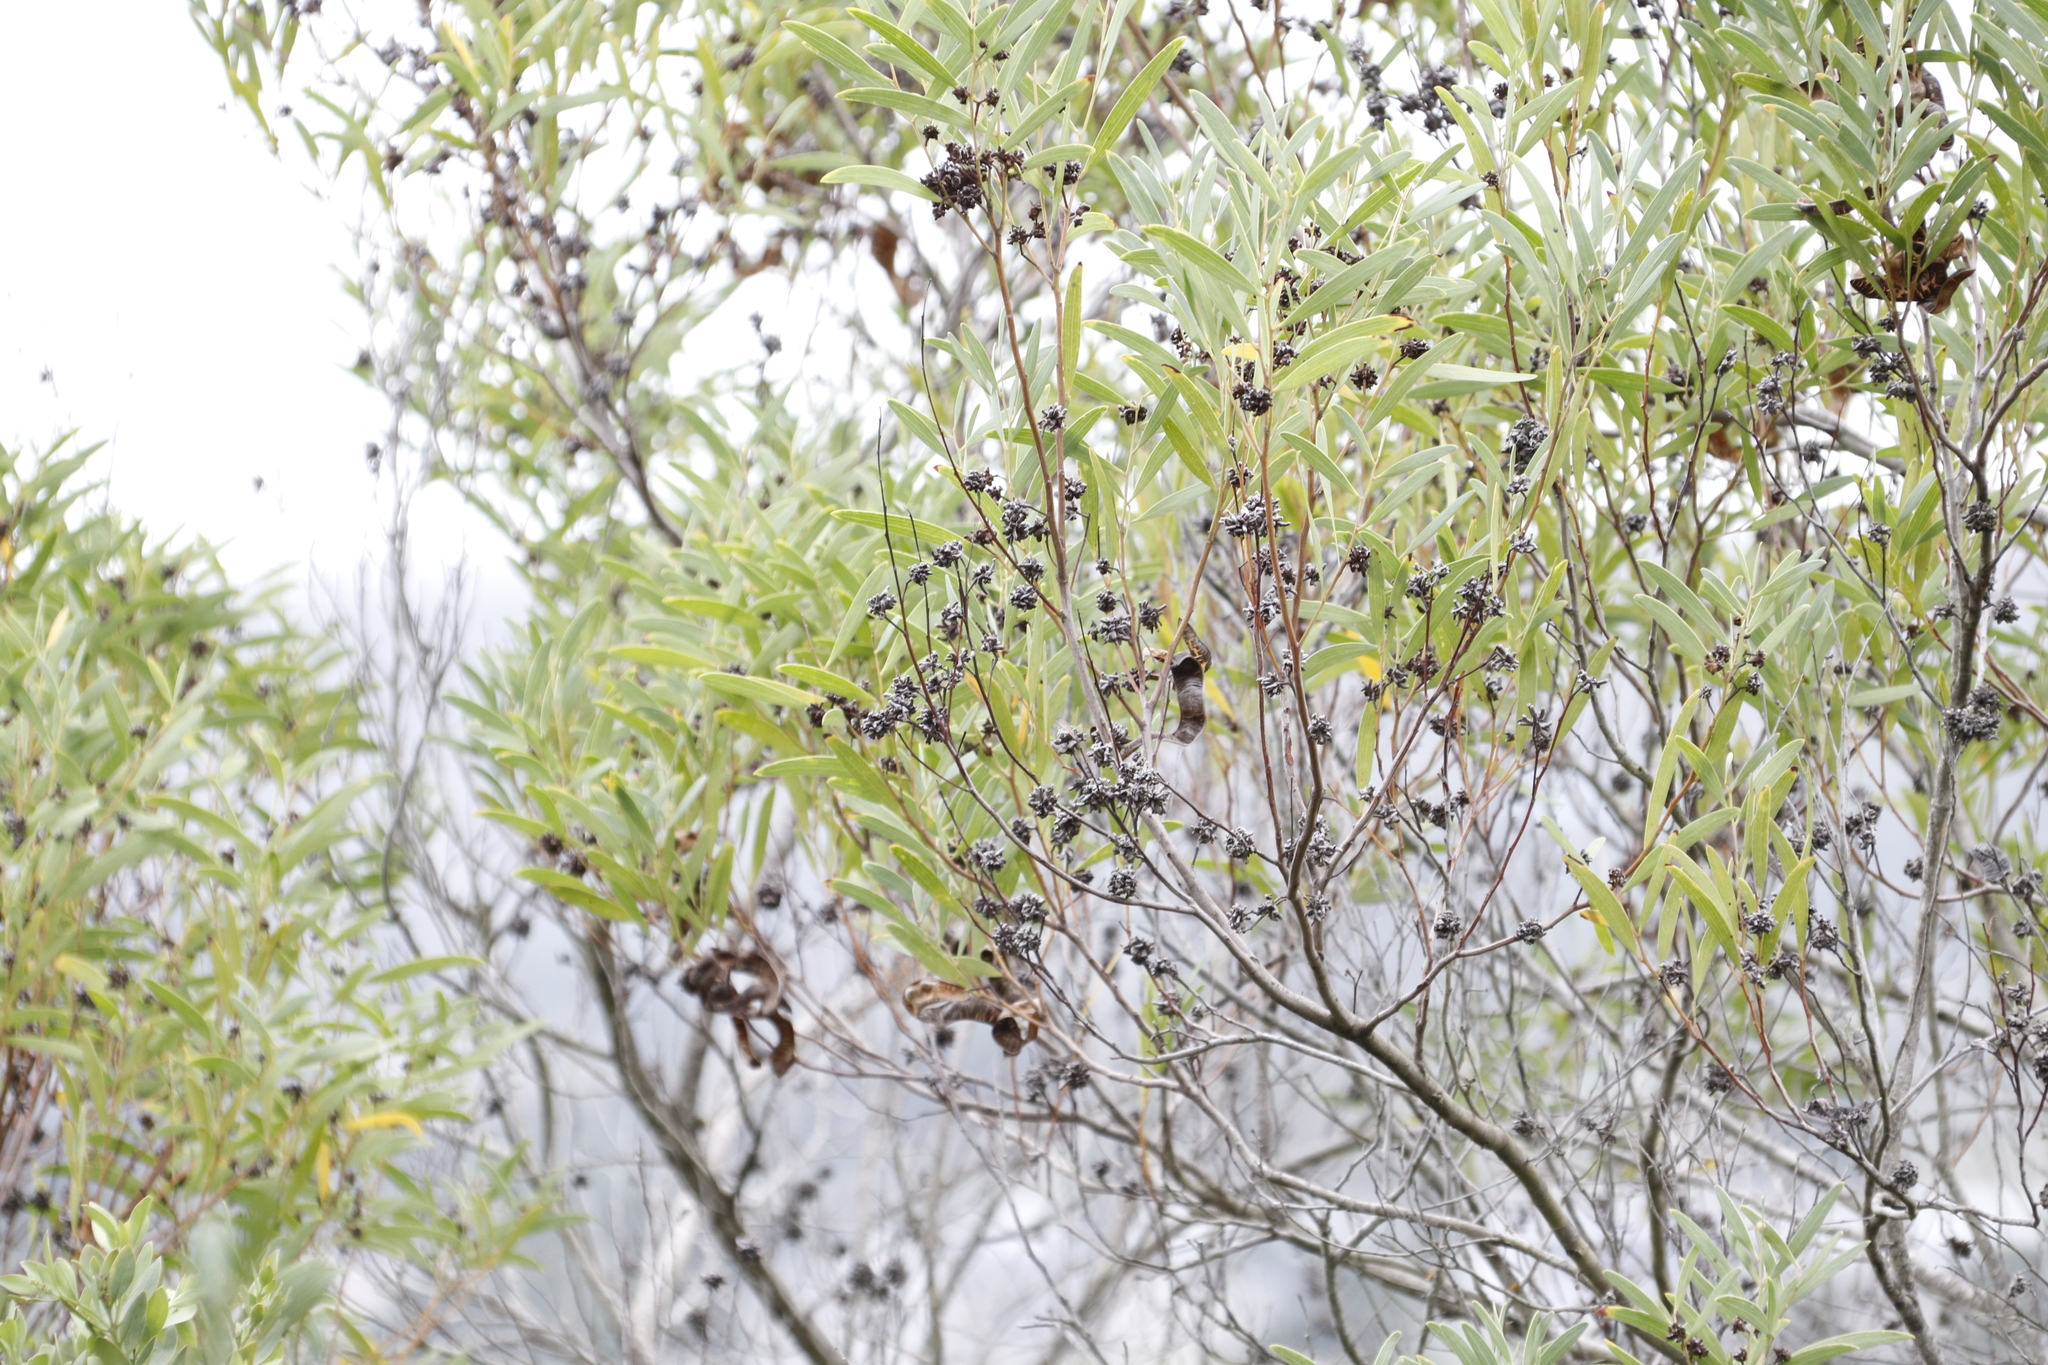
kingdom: Plantae
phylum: Tracheophyta
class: Magnoliopsida
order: Fabales
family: Fabaceae
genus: Acacia
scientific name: Acacia cyclops
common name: Coastal wattle
